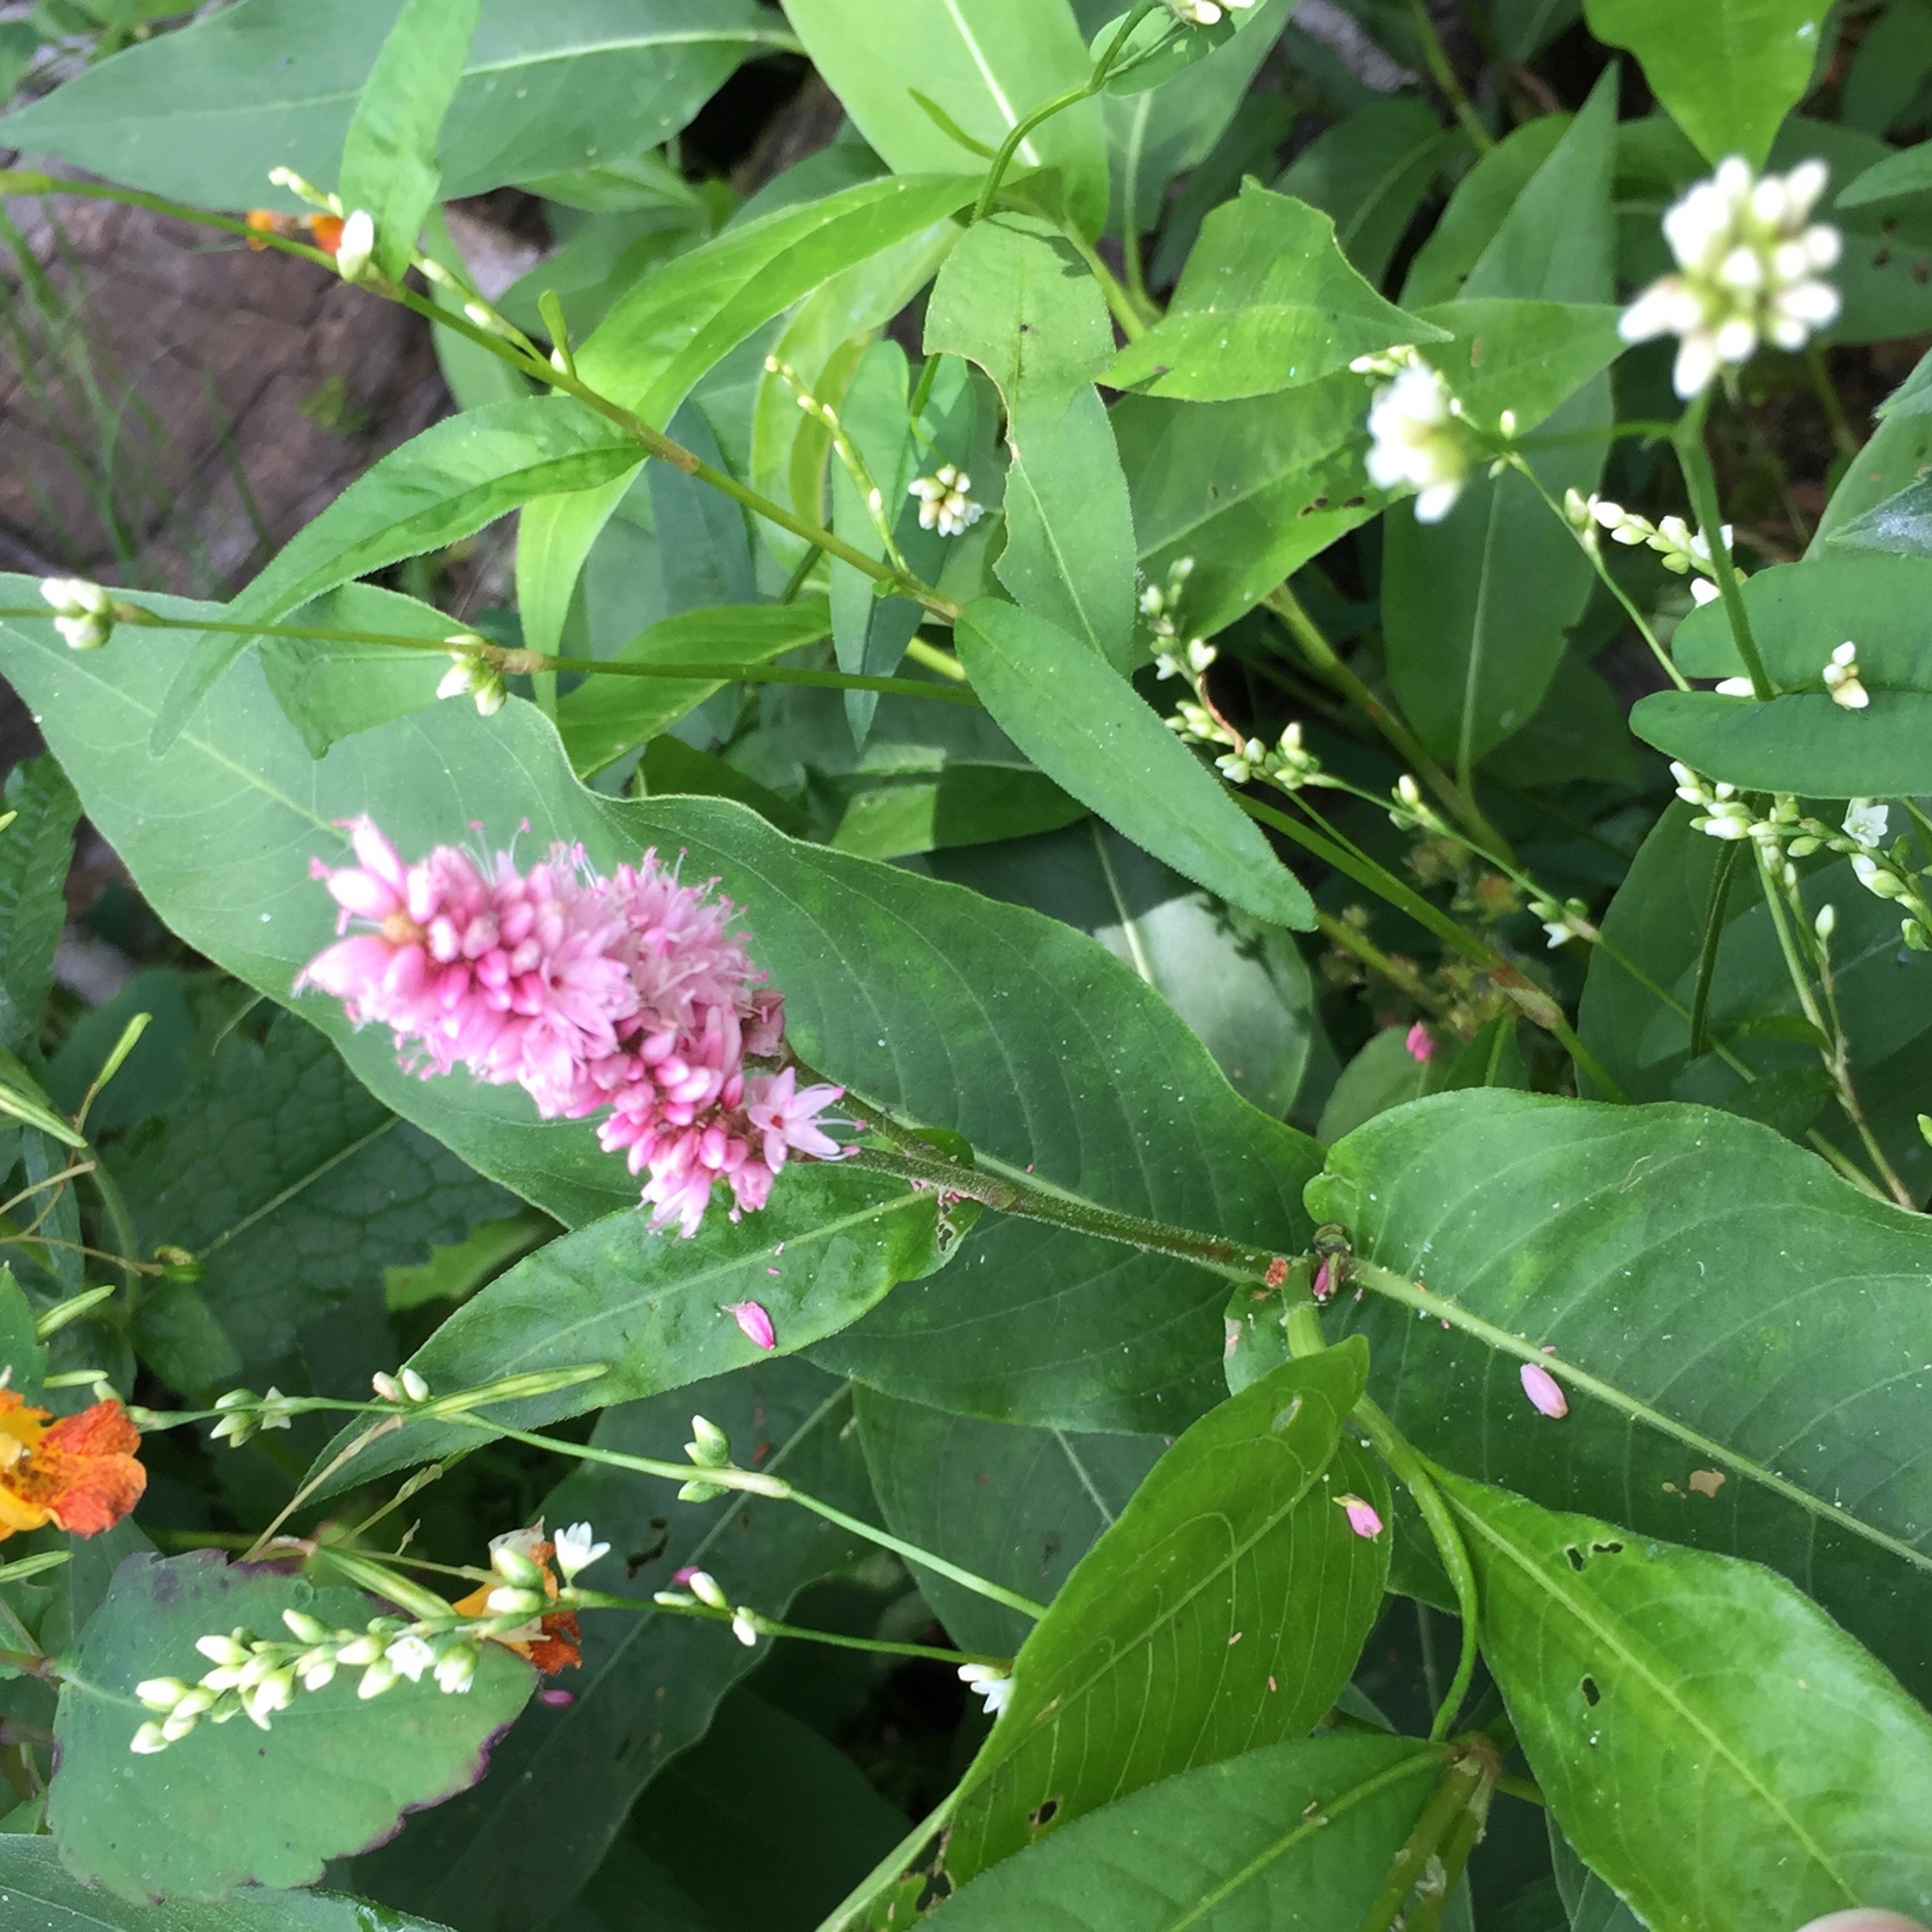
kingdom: Plantae
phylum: Tracheophyta
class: Magnoliopsida
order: Caryophyllales
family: Polygonaceae
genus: Persicaria
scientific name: Persicaria amphibia
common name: Amphibious bistort
